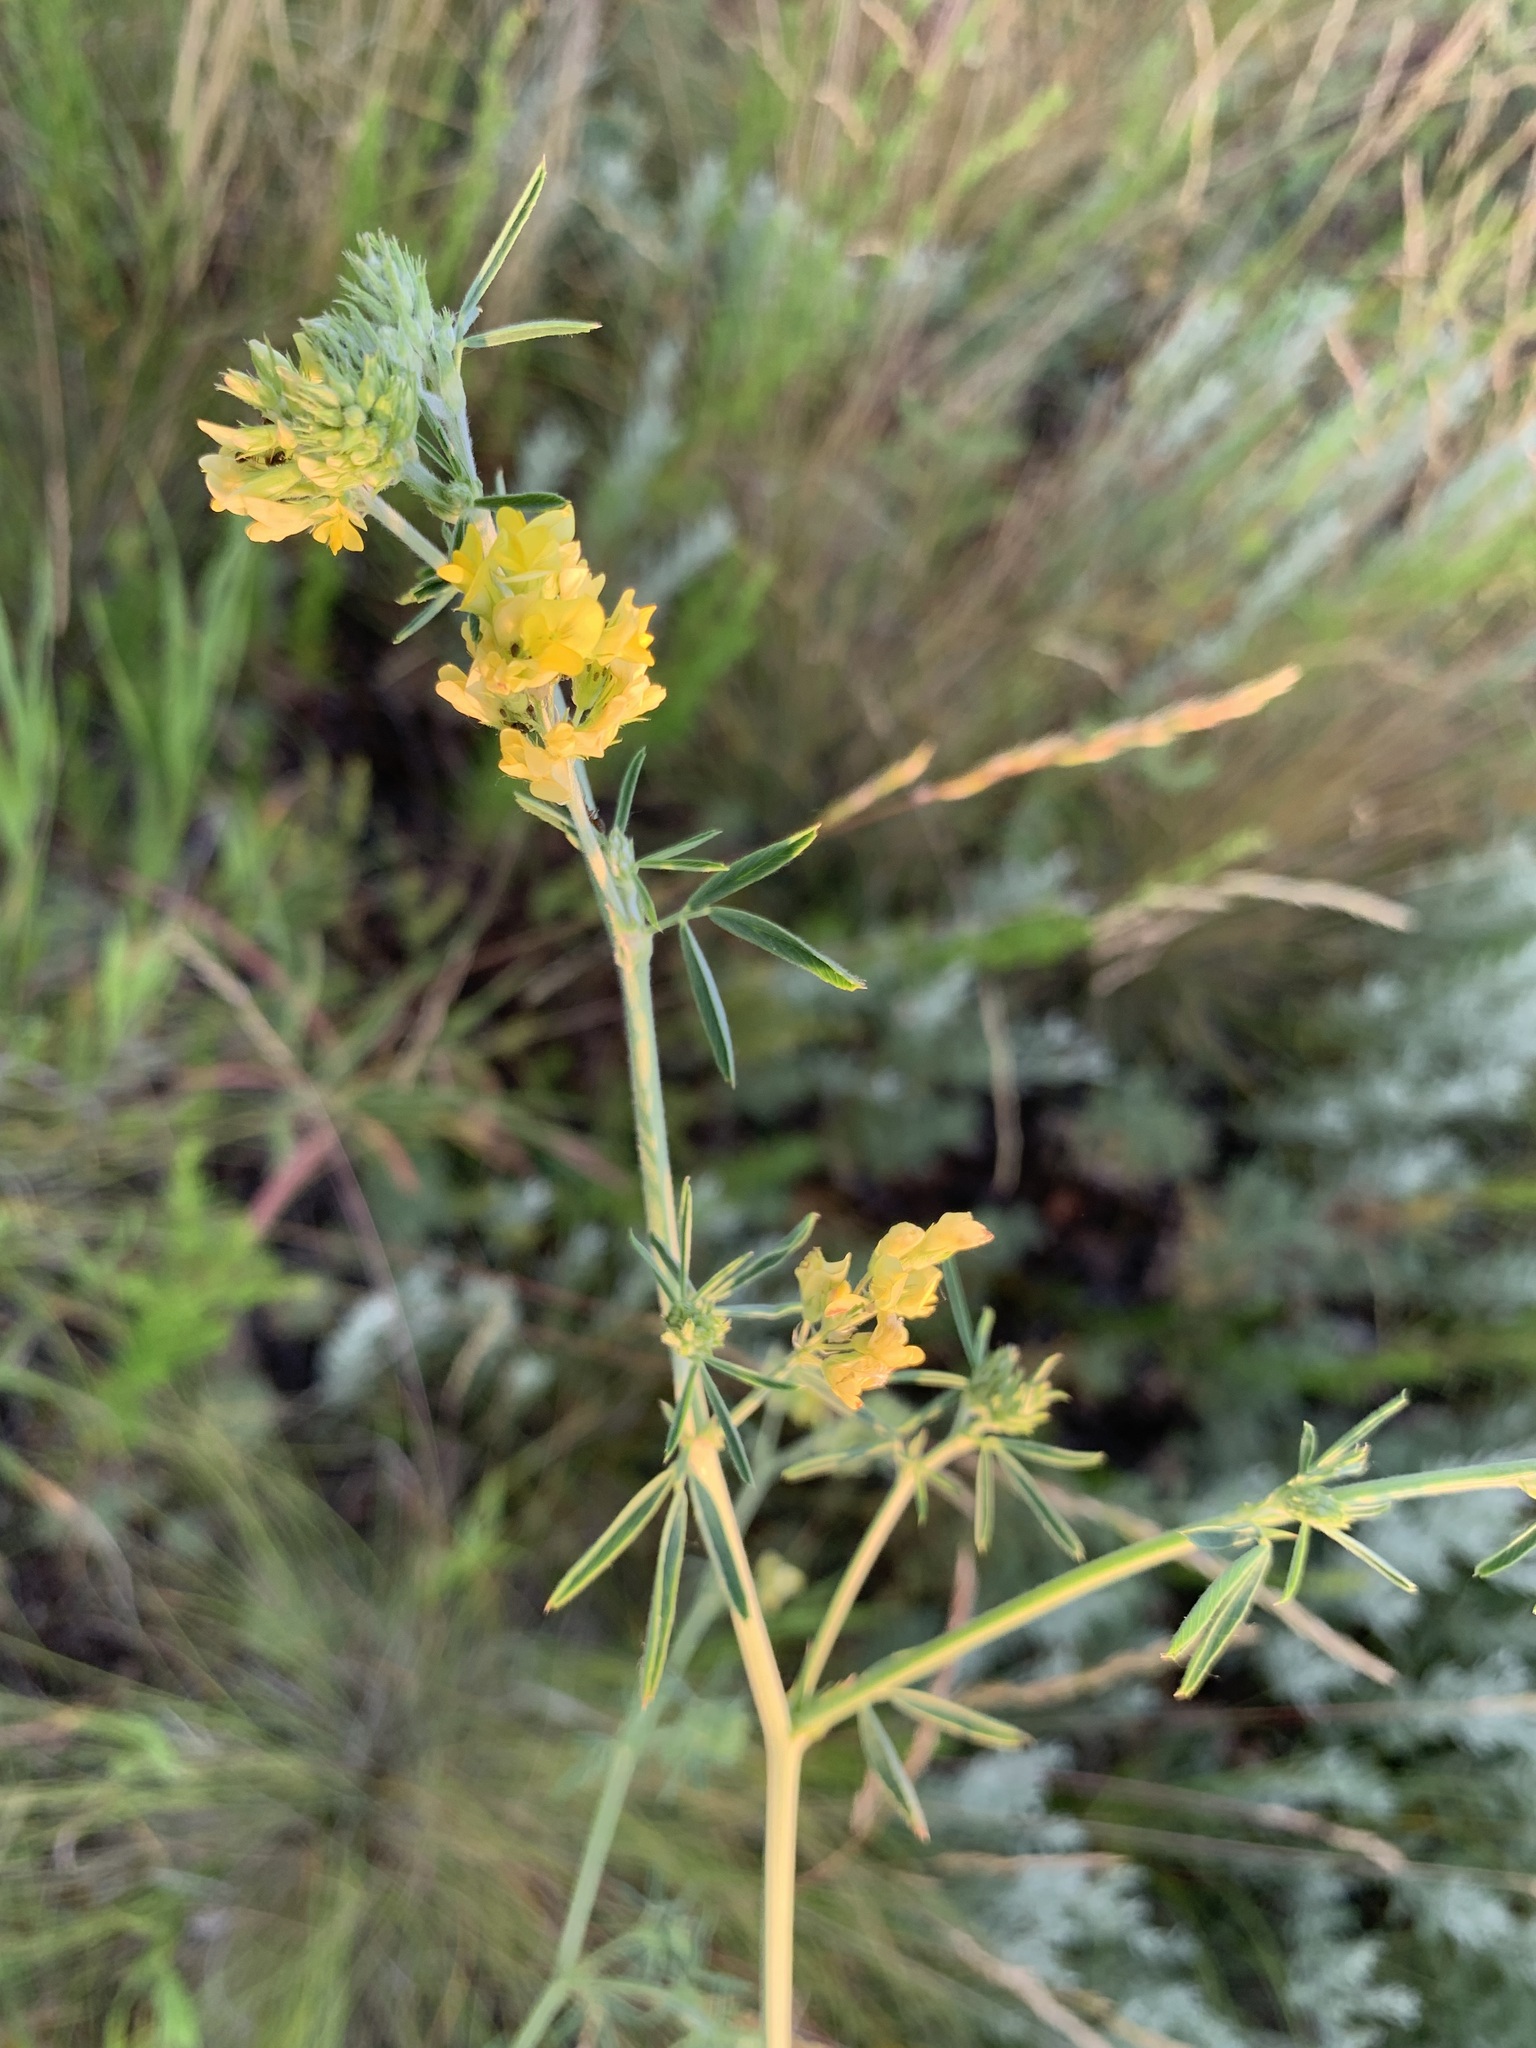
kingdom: Plantae
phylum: Tracheophyta
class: Magnoliopsida
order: Fabales
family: Fabaceae
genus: Medicago
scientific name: Medicago falcata
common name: Sickle medick
